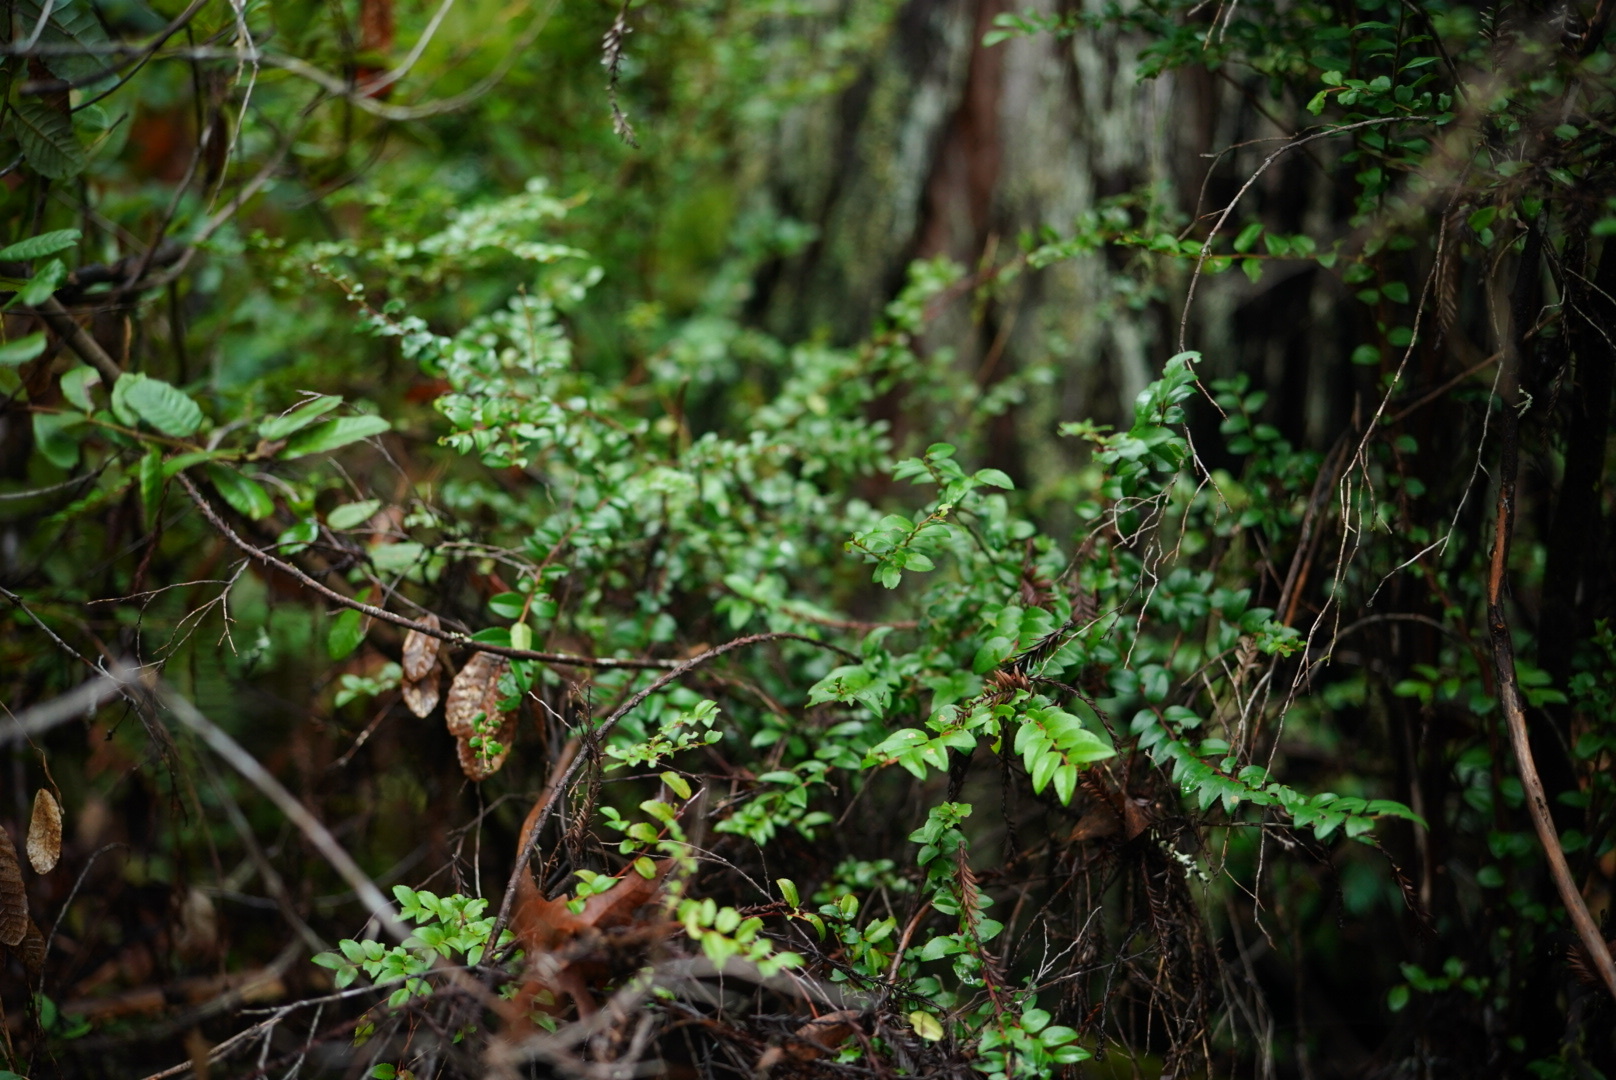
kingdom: Plantae
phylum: Tracheophyta
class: Magnoliopsida
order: Ericales
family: Ericaceae
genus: Vaccinium
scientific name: Vaccinium ovatum
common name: California-huckleberry
